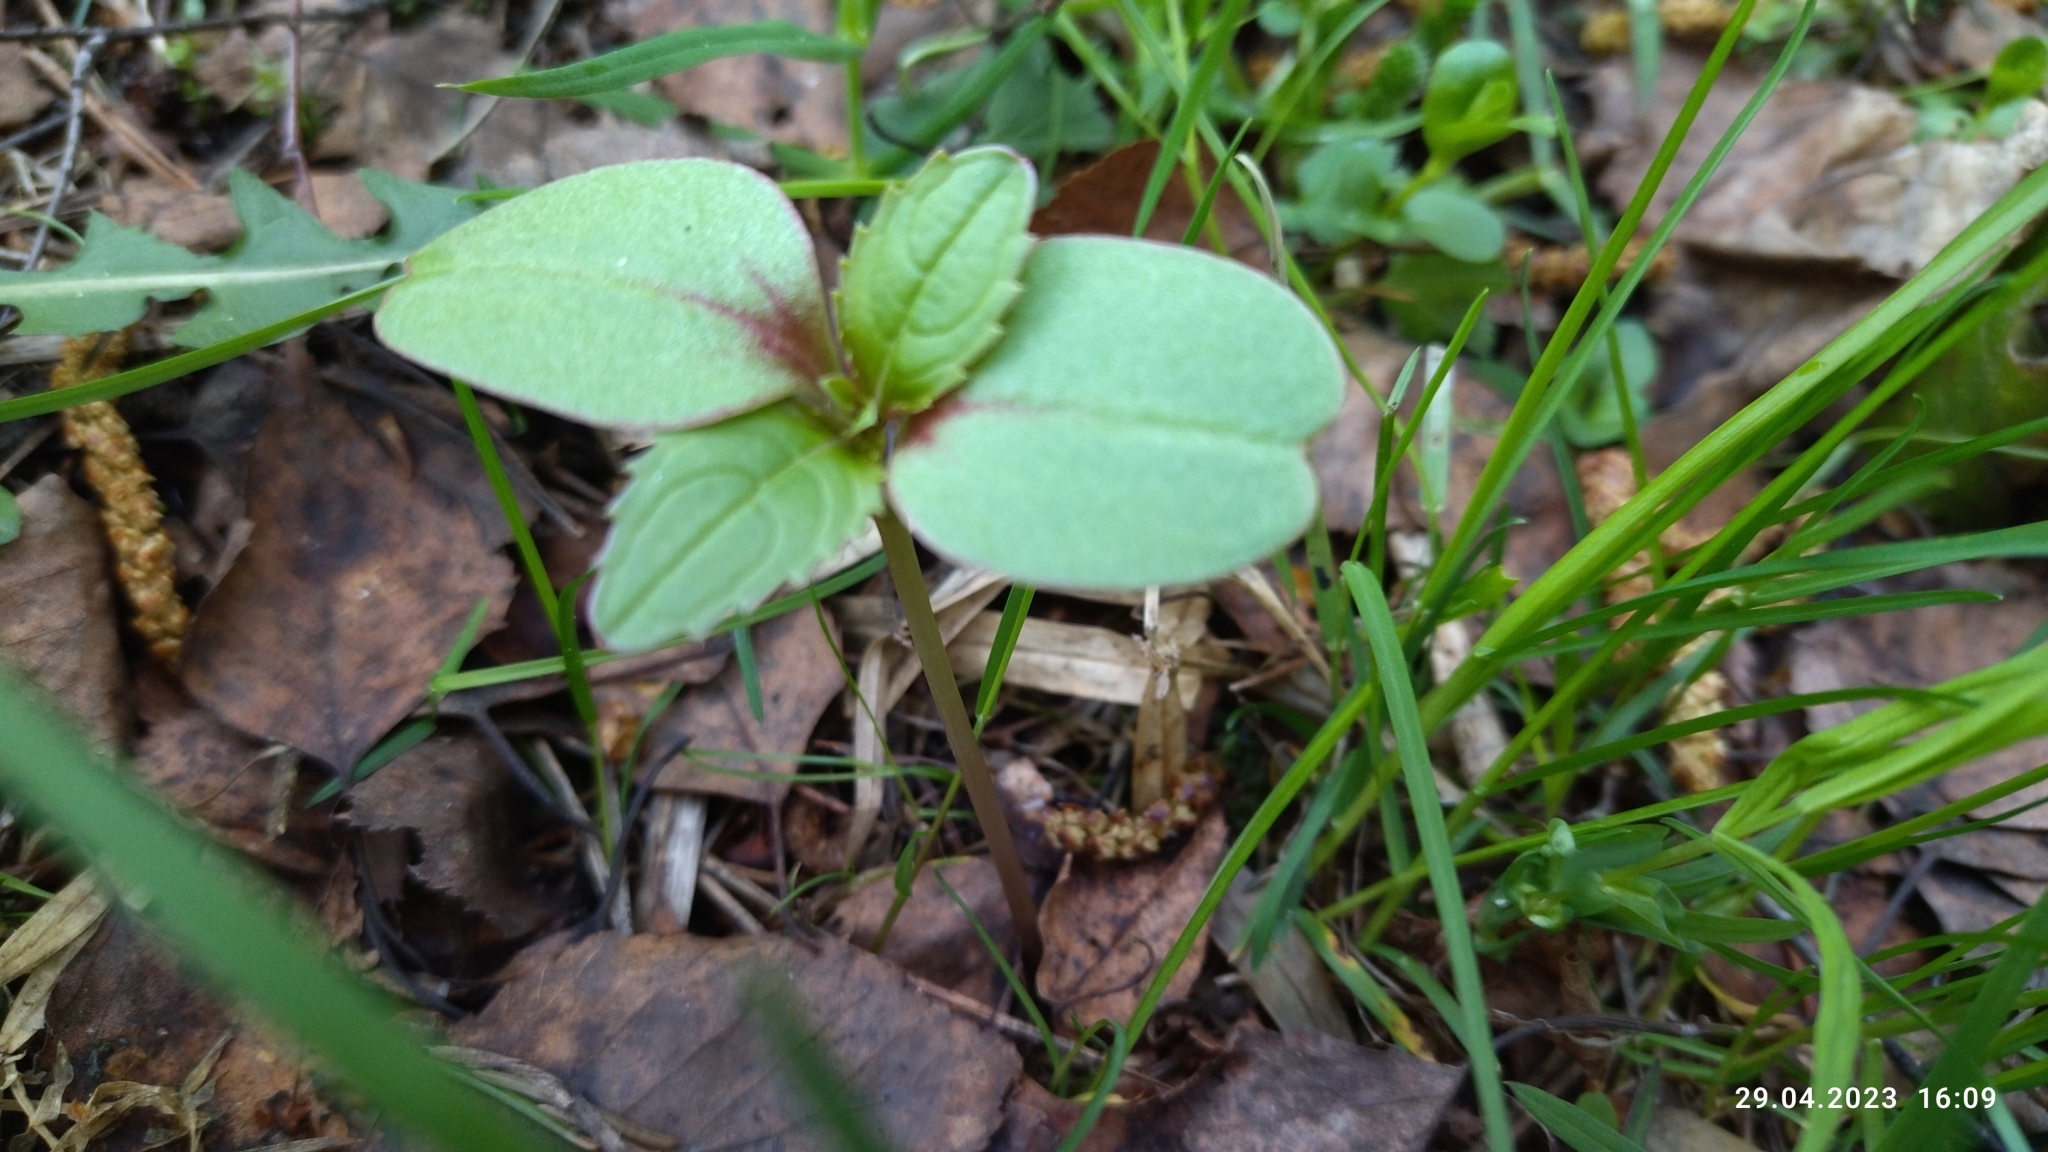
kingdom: Plantae
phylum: Tracheophyta
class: Magnoliopsida
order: Ericales
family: Balsaminaceae
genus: Impatiens
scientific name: Impatiens glandulifera
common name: Himalayan balsam
